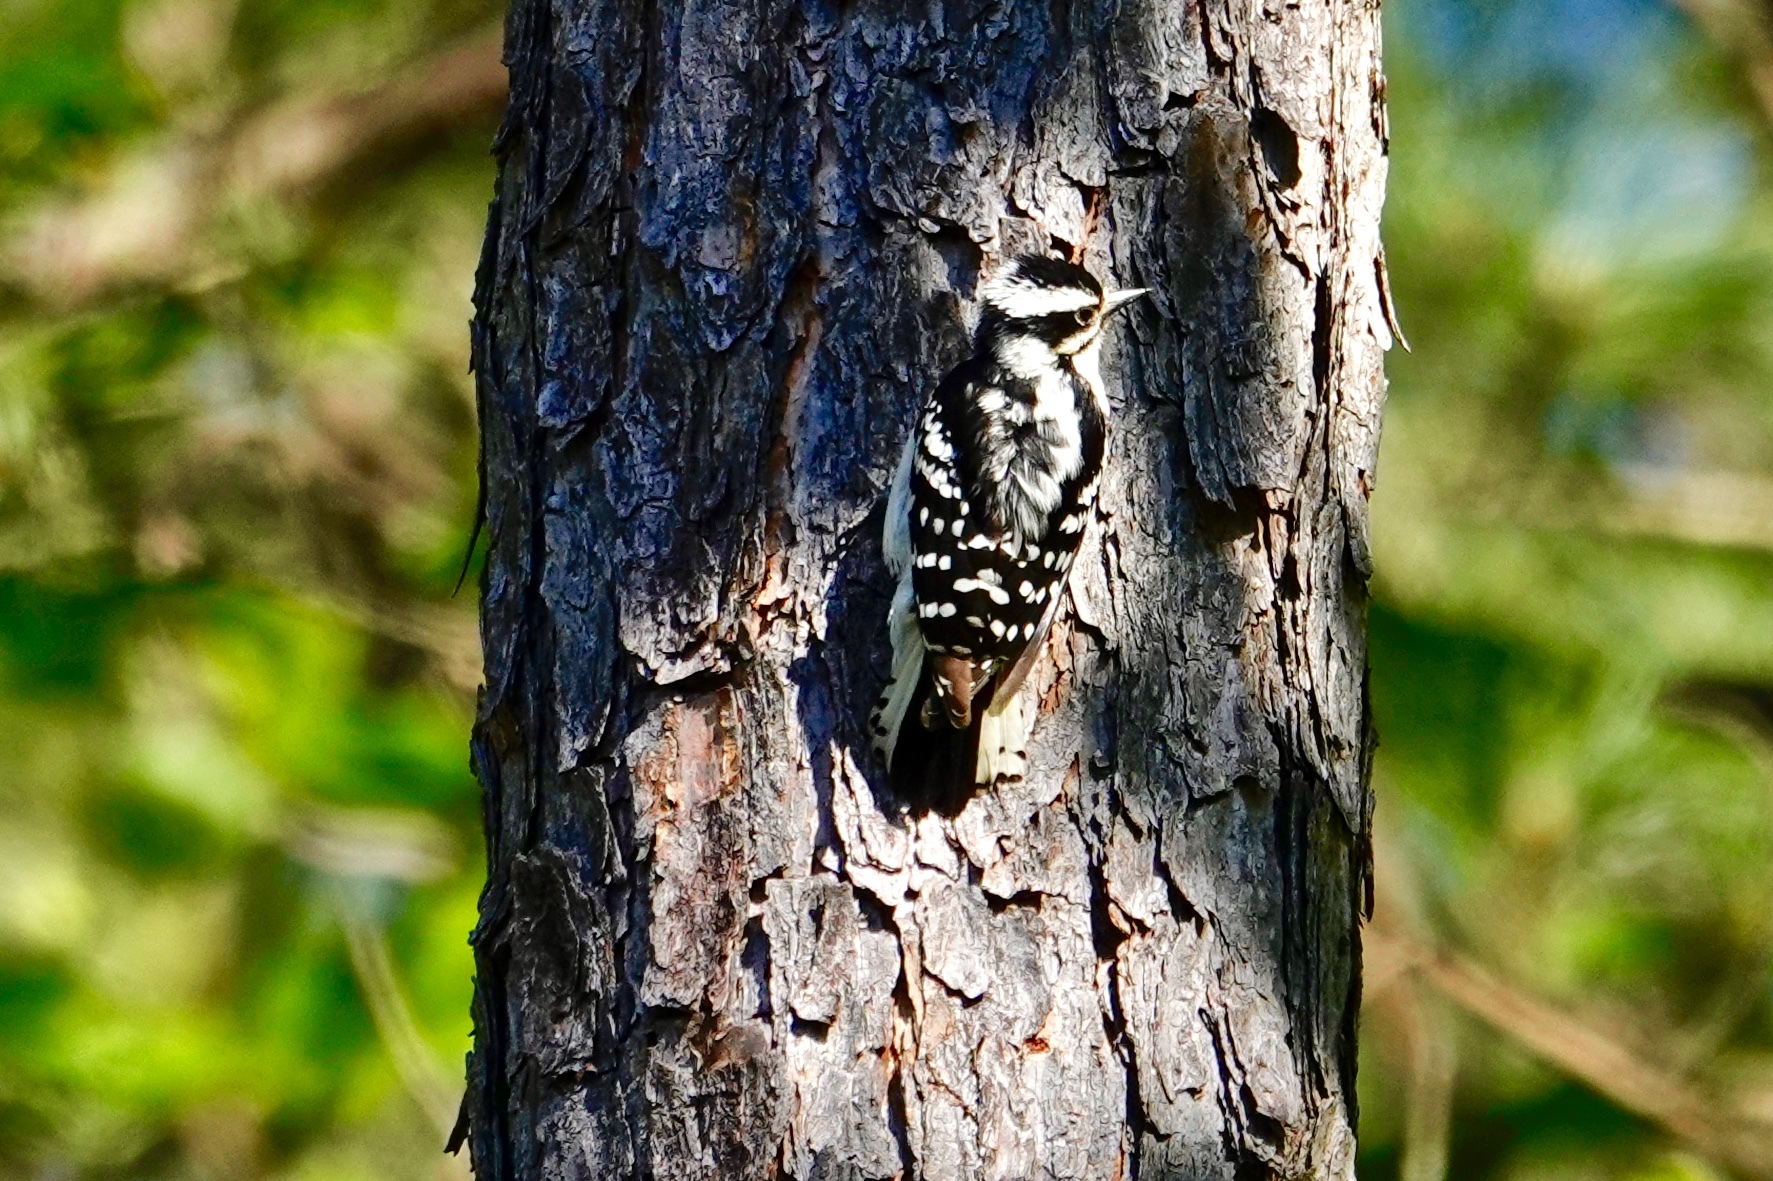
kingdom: Animalia
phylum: Chordata
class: Aves
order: Piciformes
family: Picidae
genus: Dryobates
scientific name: Dryobates pubescens
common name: Downy woodpecker
